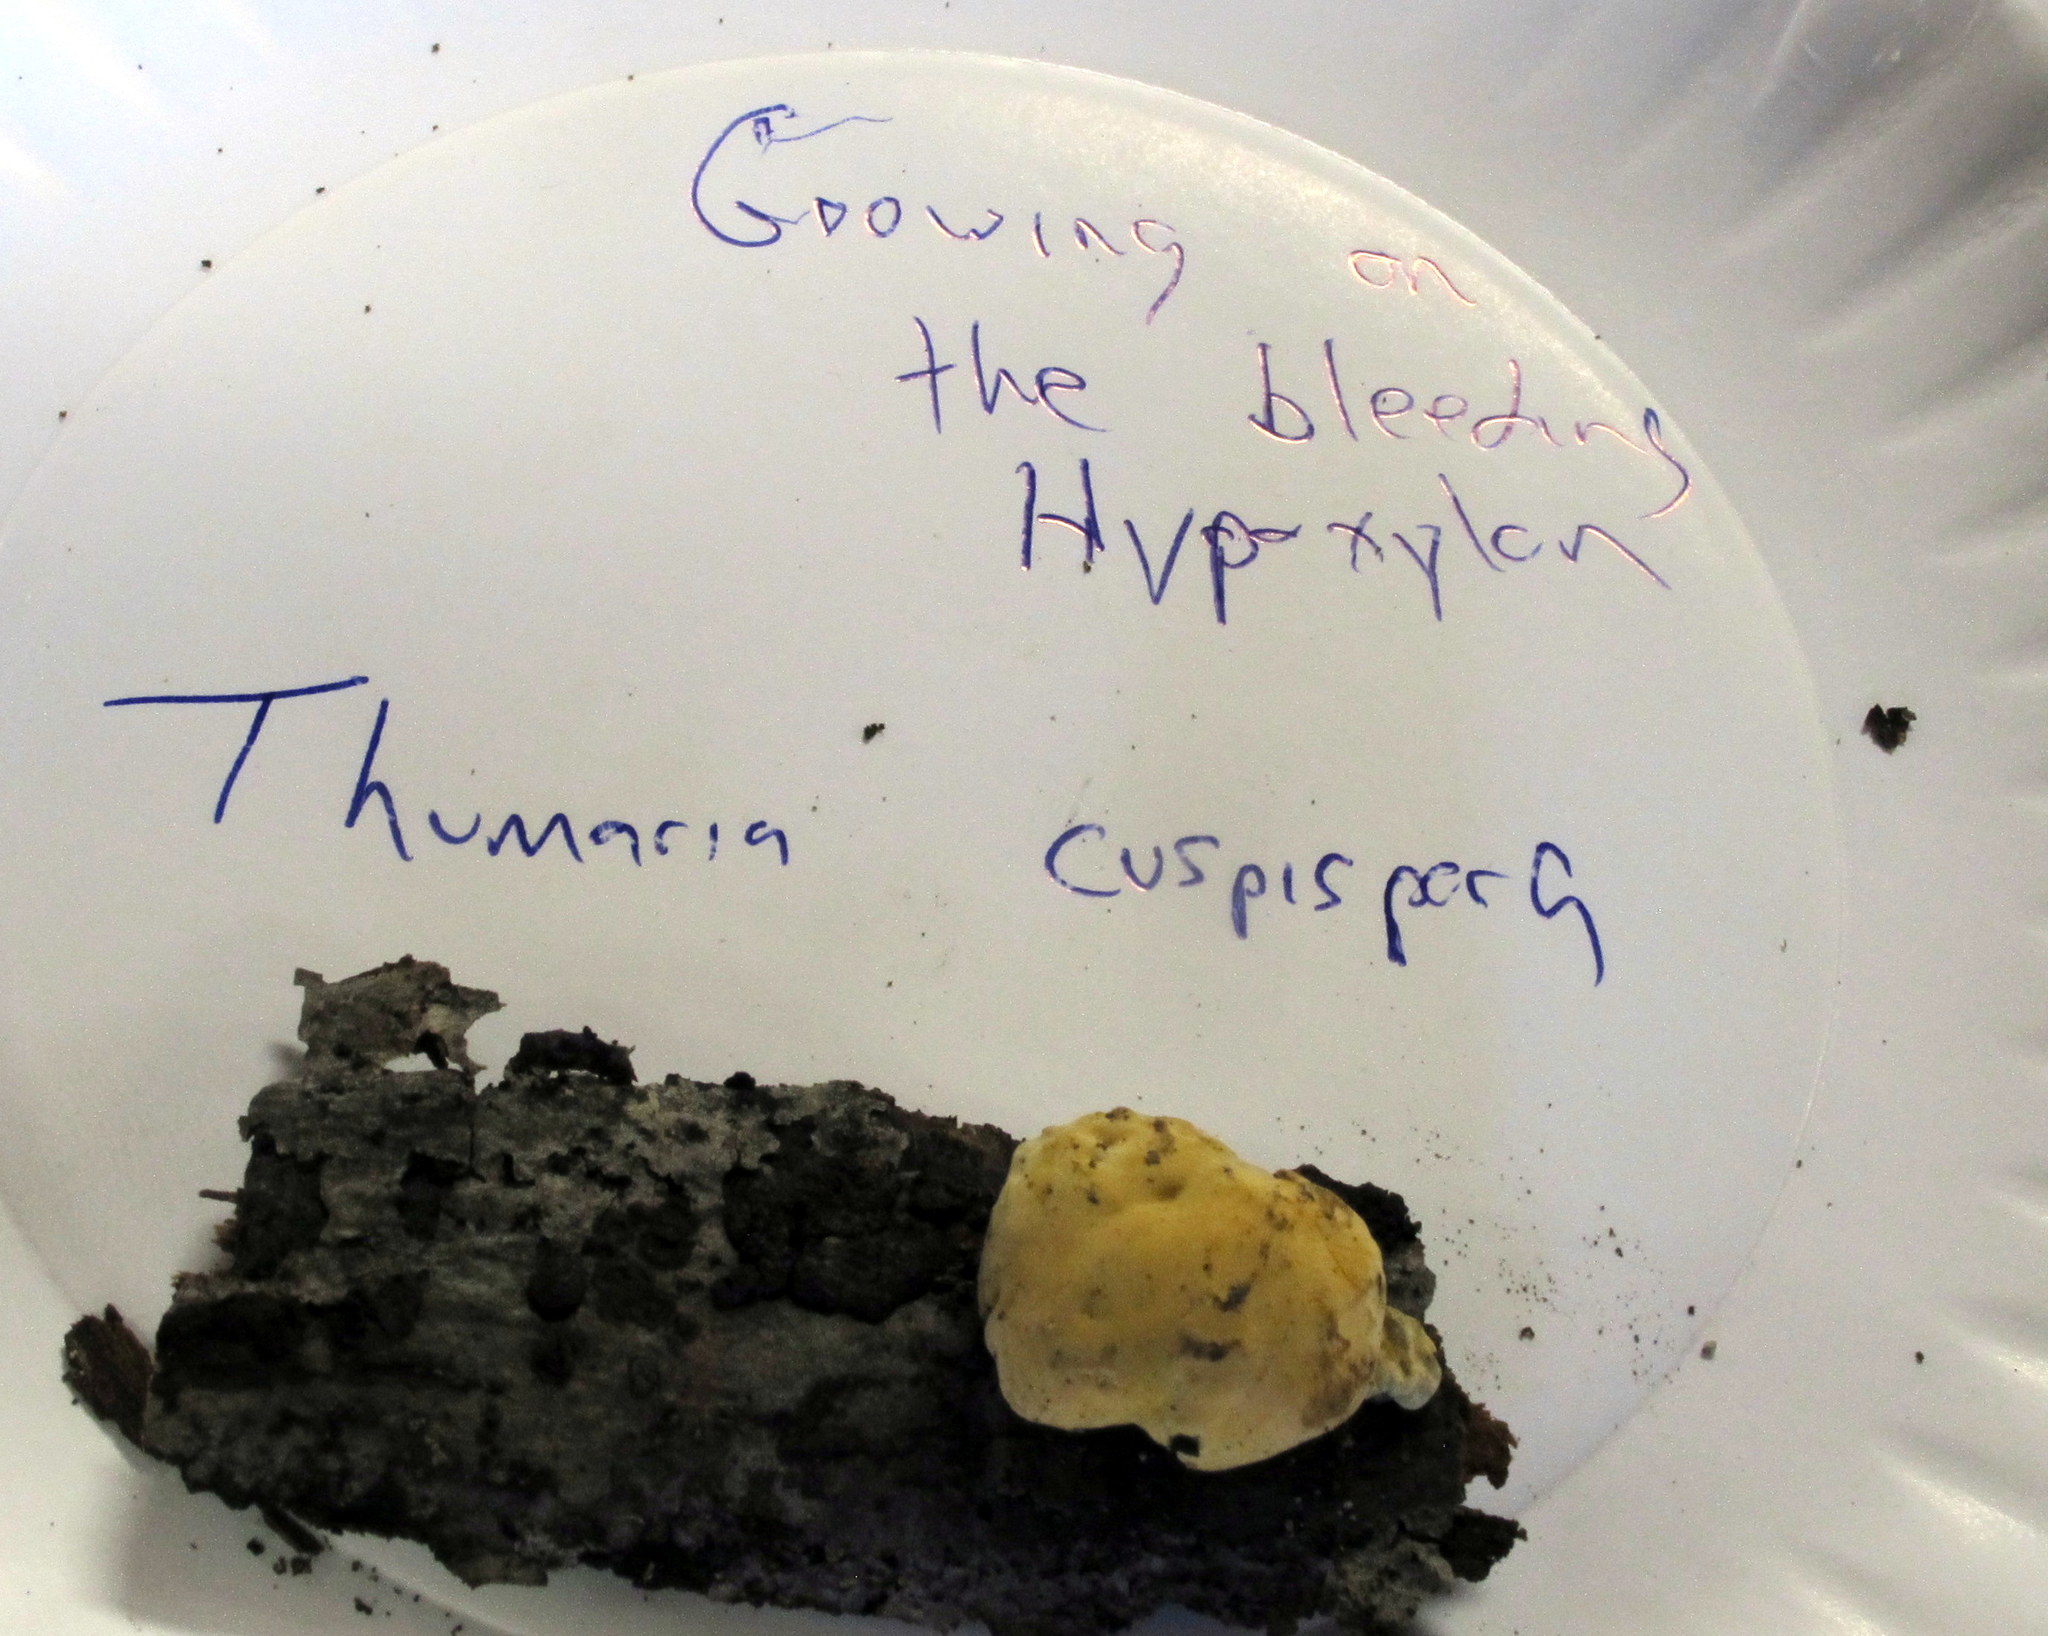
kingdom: Fungi
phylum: Ascomycota
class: Sordariomycetes
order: Xylariales
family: Hypoxylaceae
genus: Thuemenella
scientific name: Thuemenella cubispora
